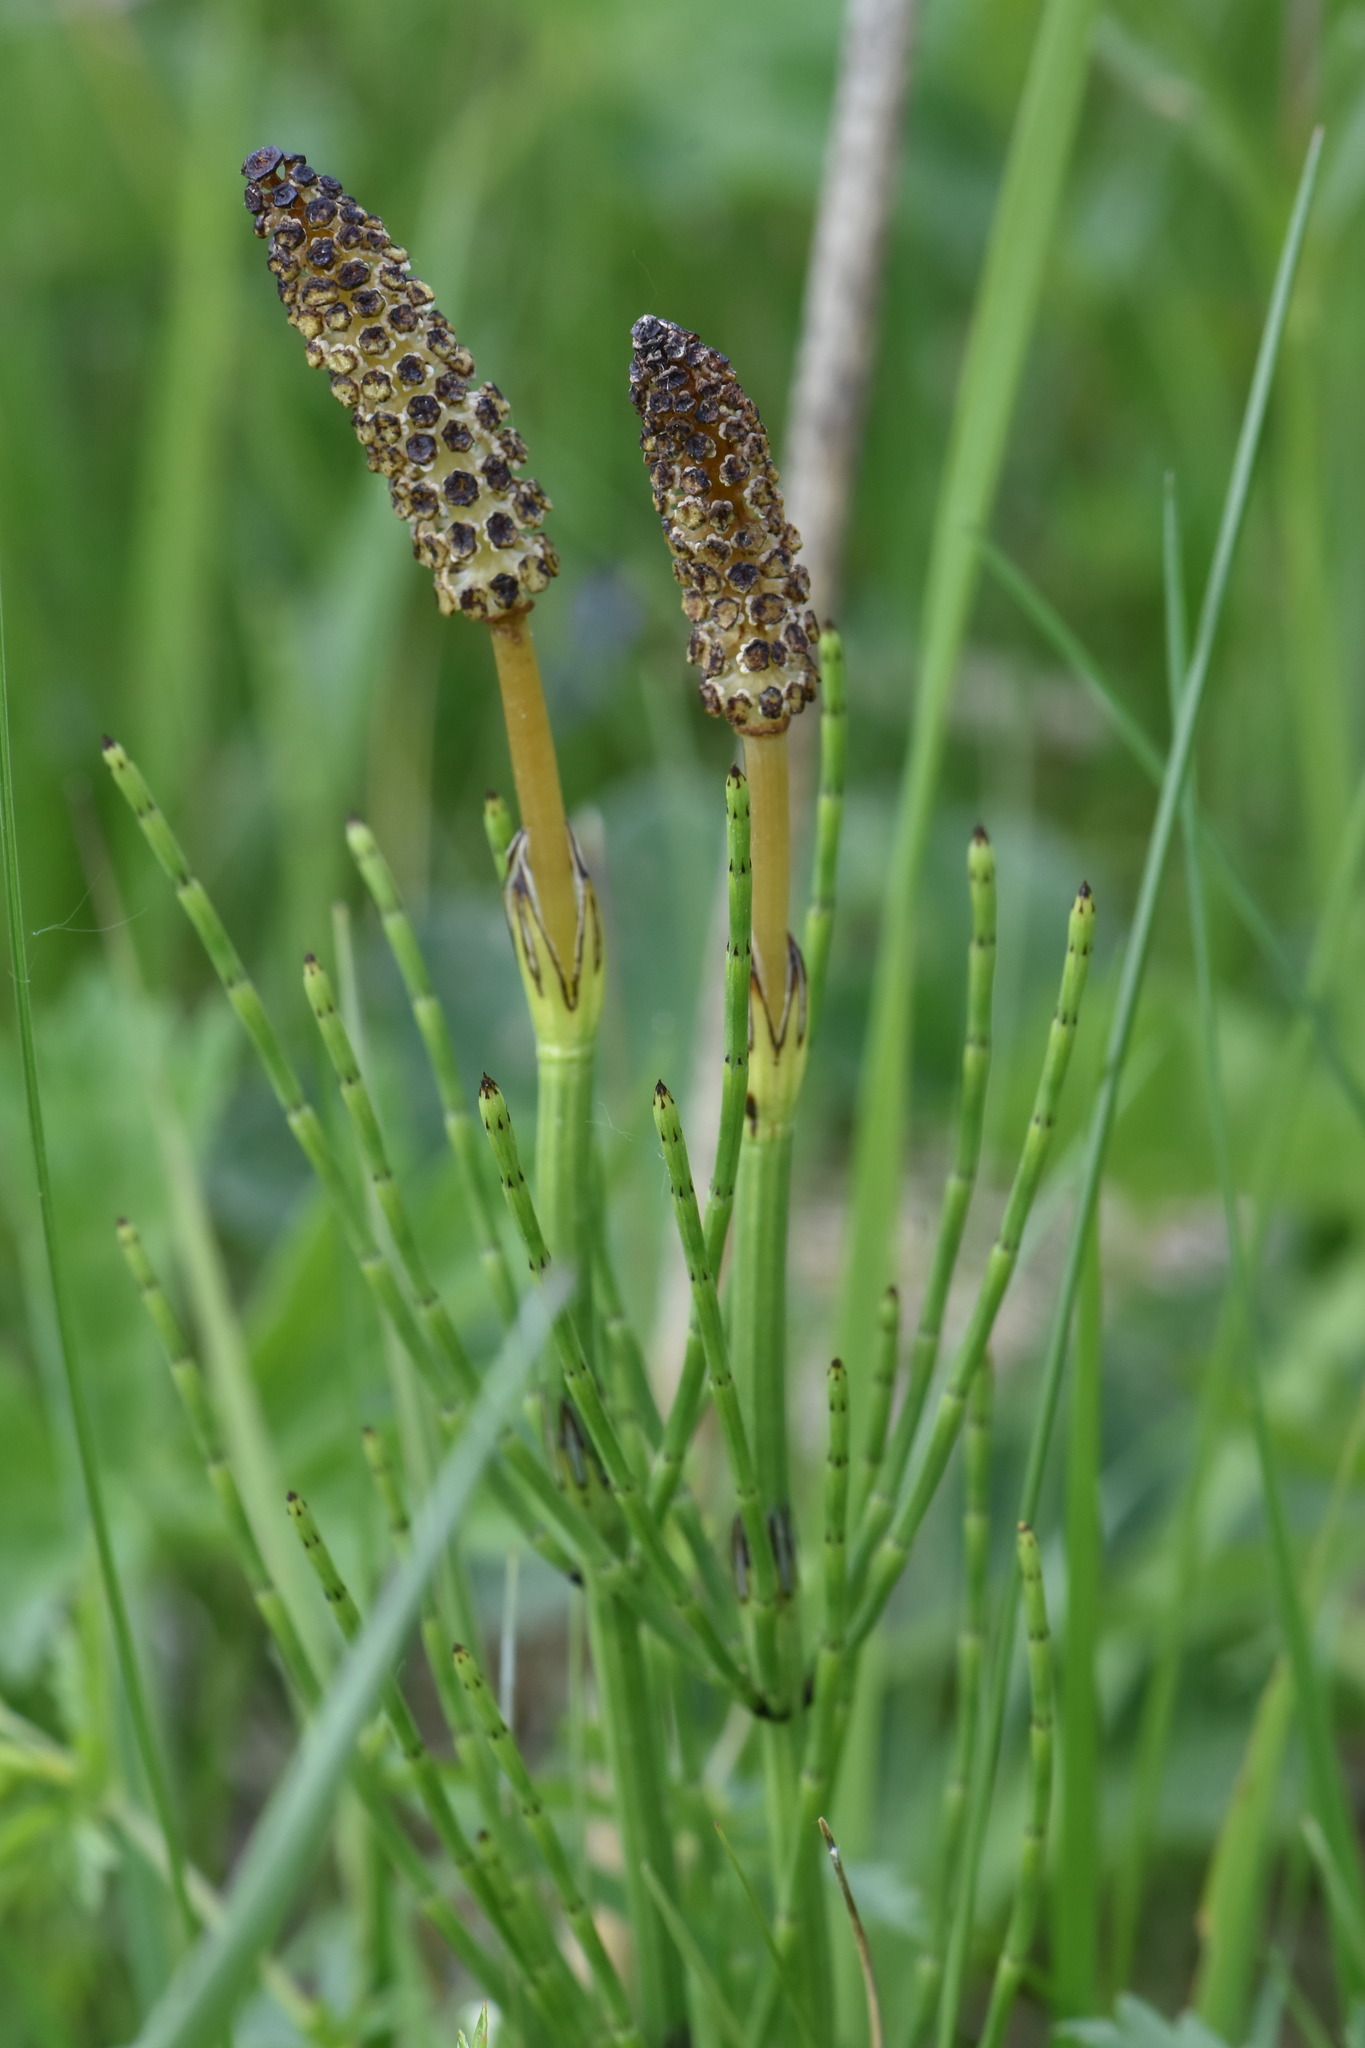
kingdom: Plantae
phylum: Tracheophyta
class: Polypodiopsida
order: Equisetales
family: Equisetaceae
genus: Equisetum
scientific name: Equisetum palustre
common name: Marsh horsetail
